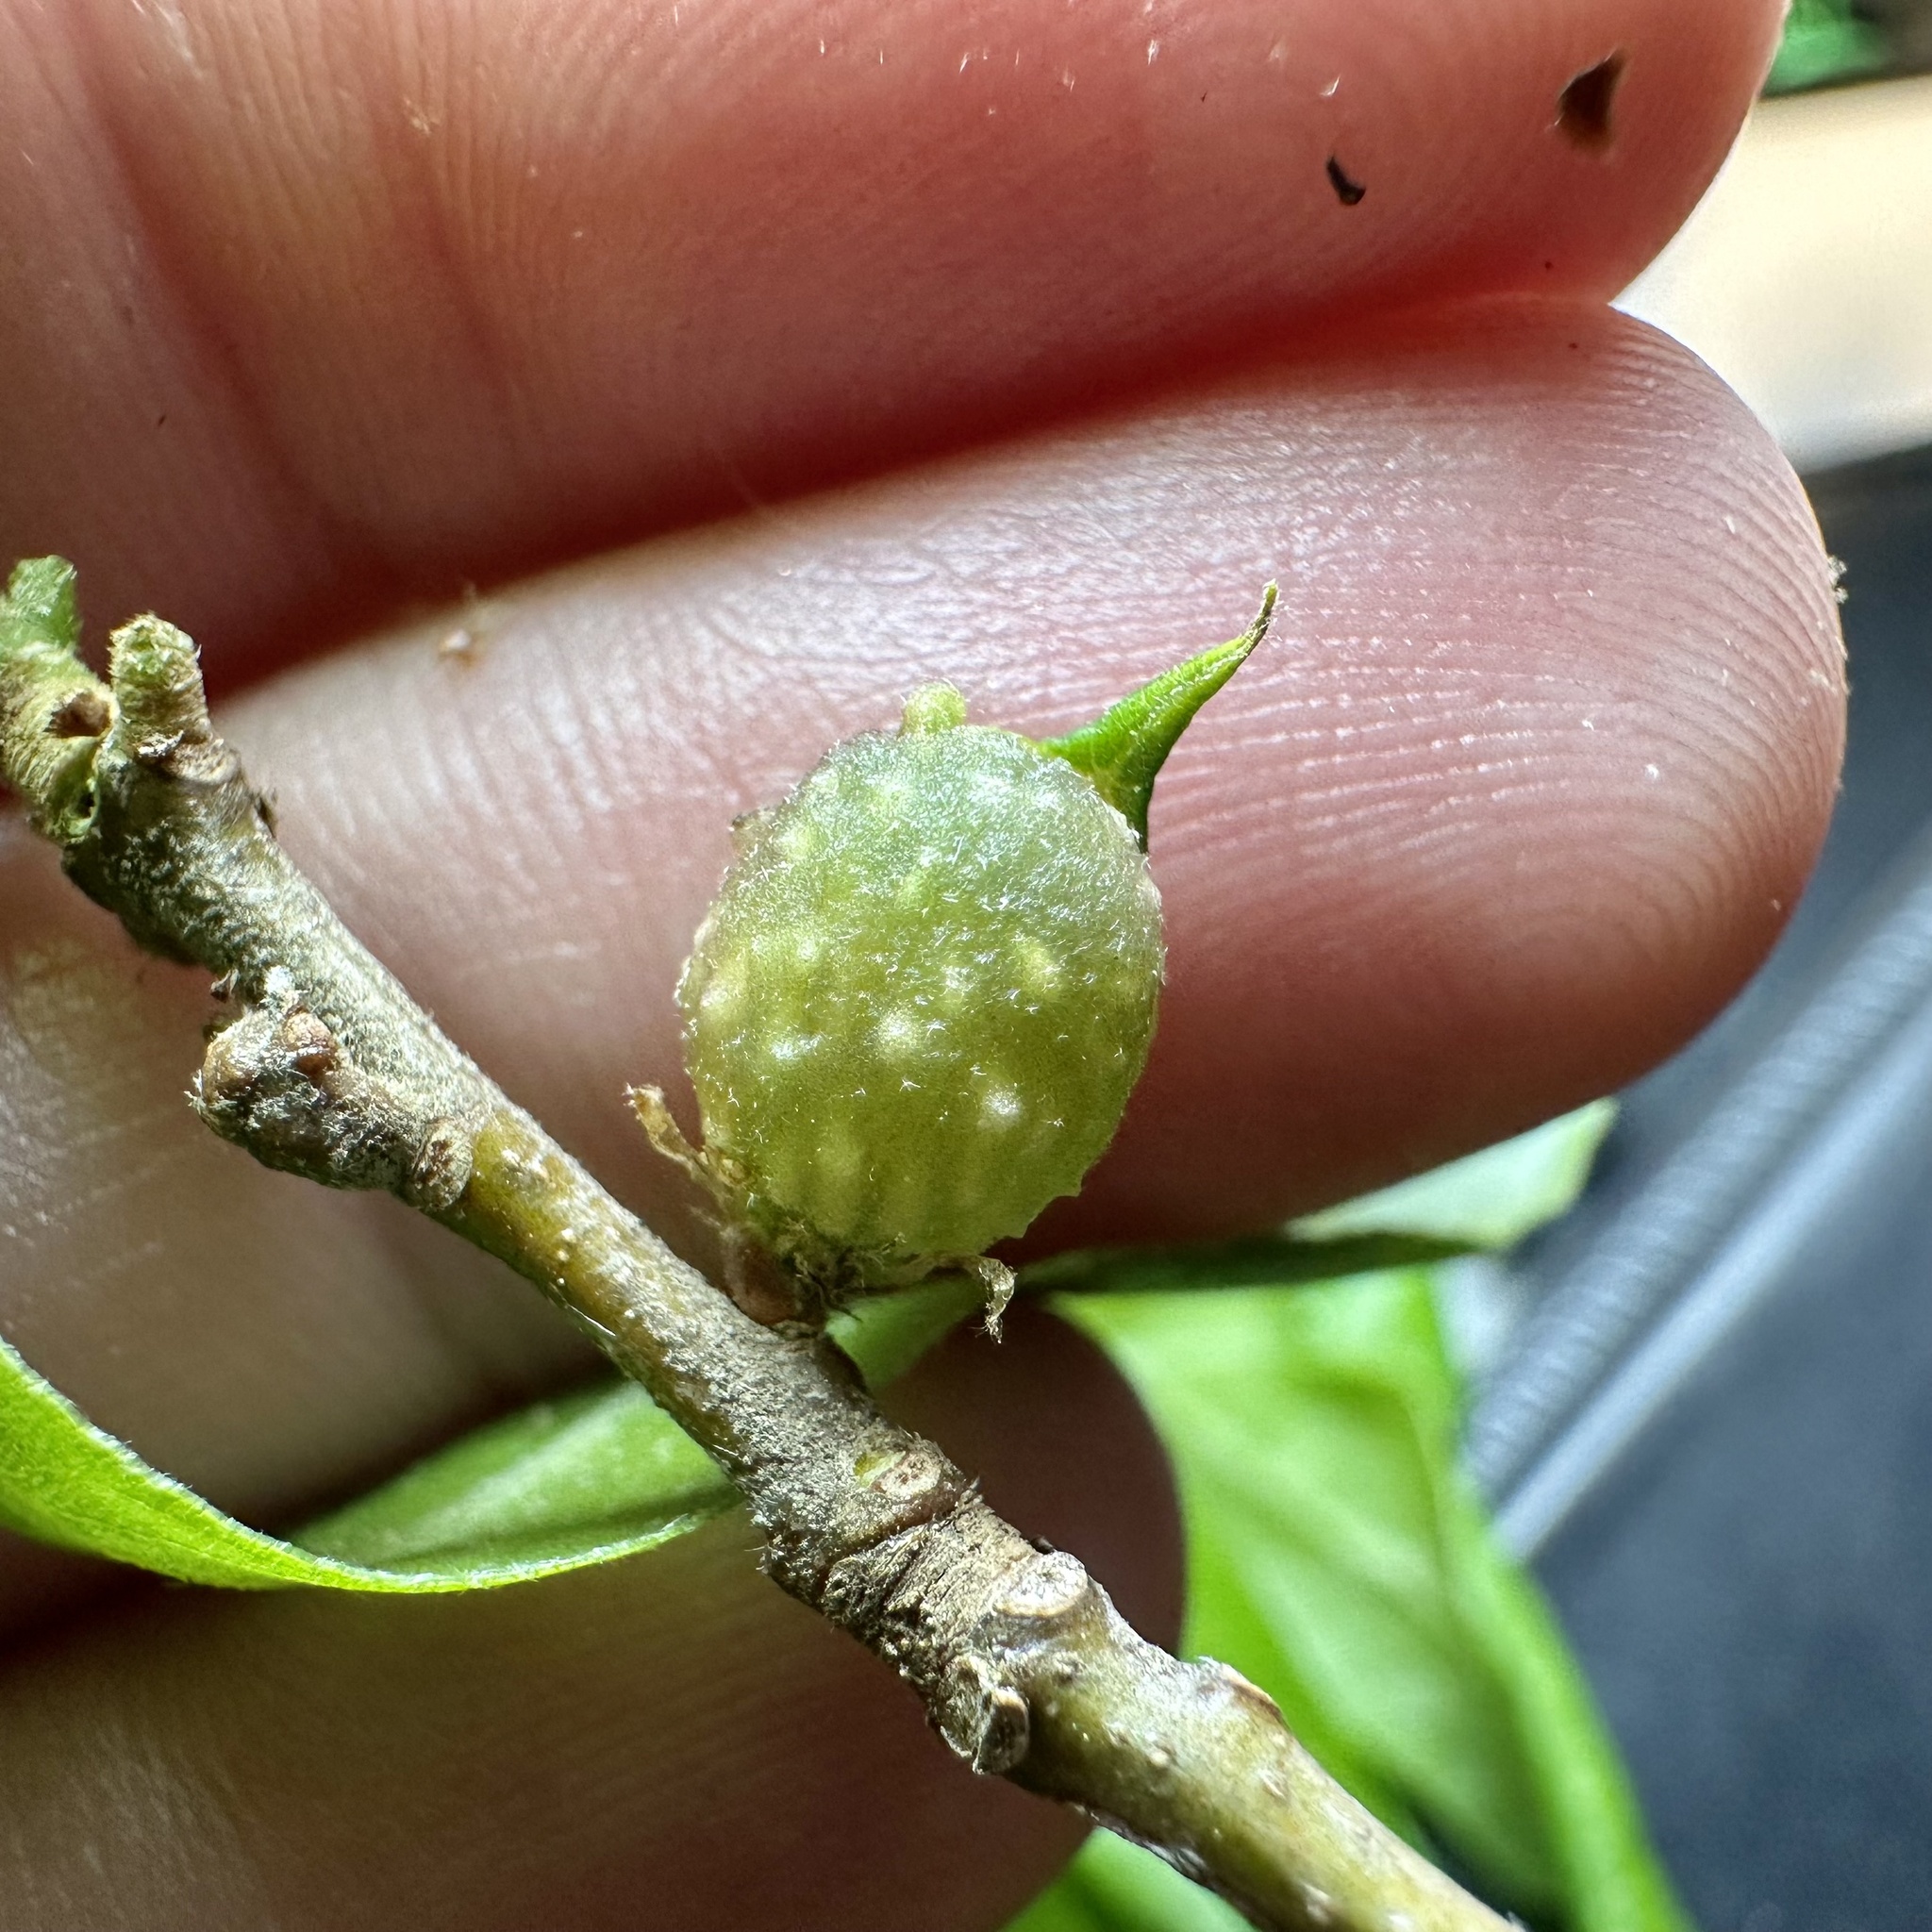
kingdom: Animalia
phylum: Arthropoda
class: Insecta
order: Hymenoptera
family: Cynipidae
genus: Dryocosmus
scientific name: Dryocosmus
